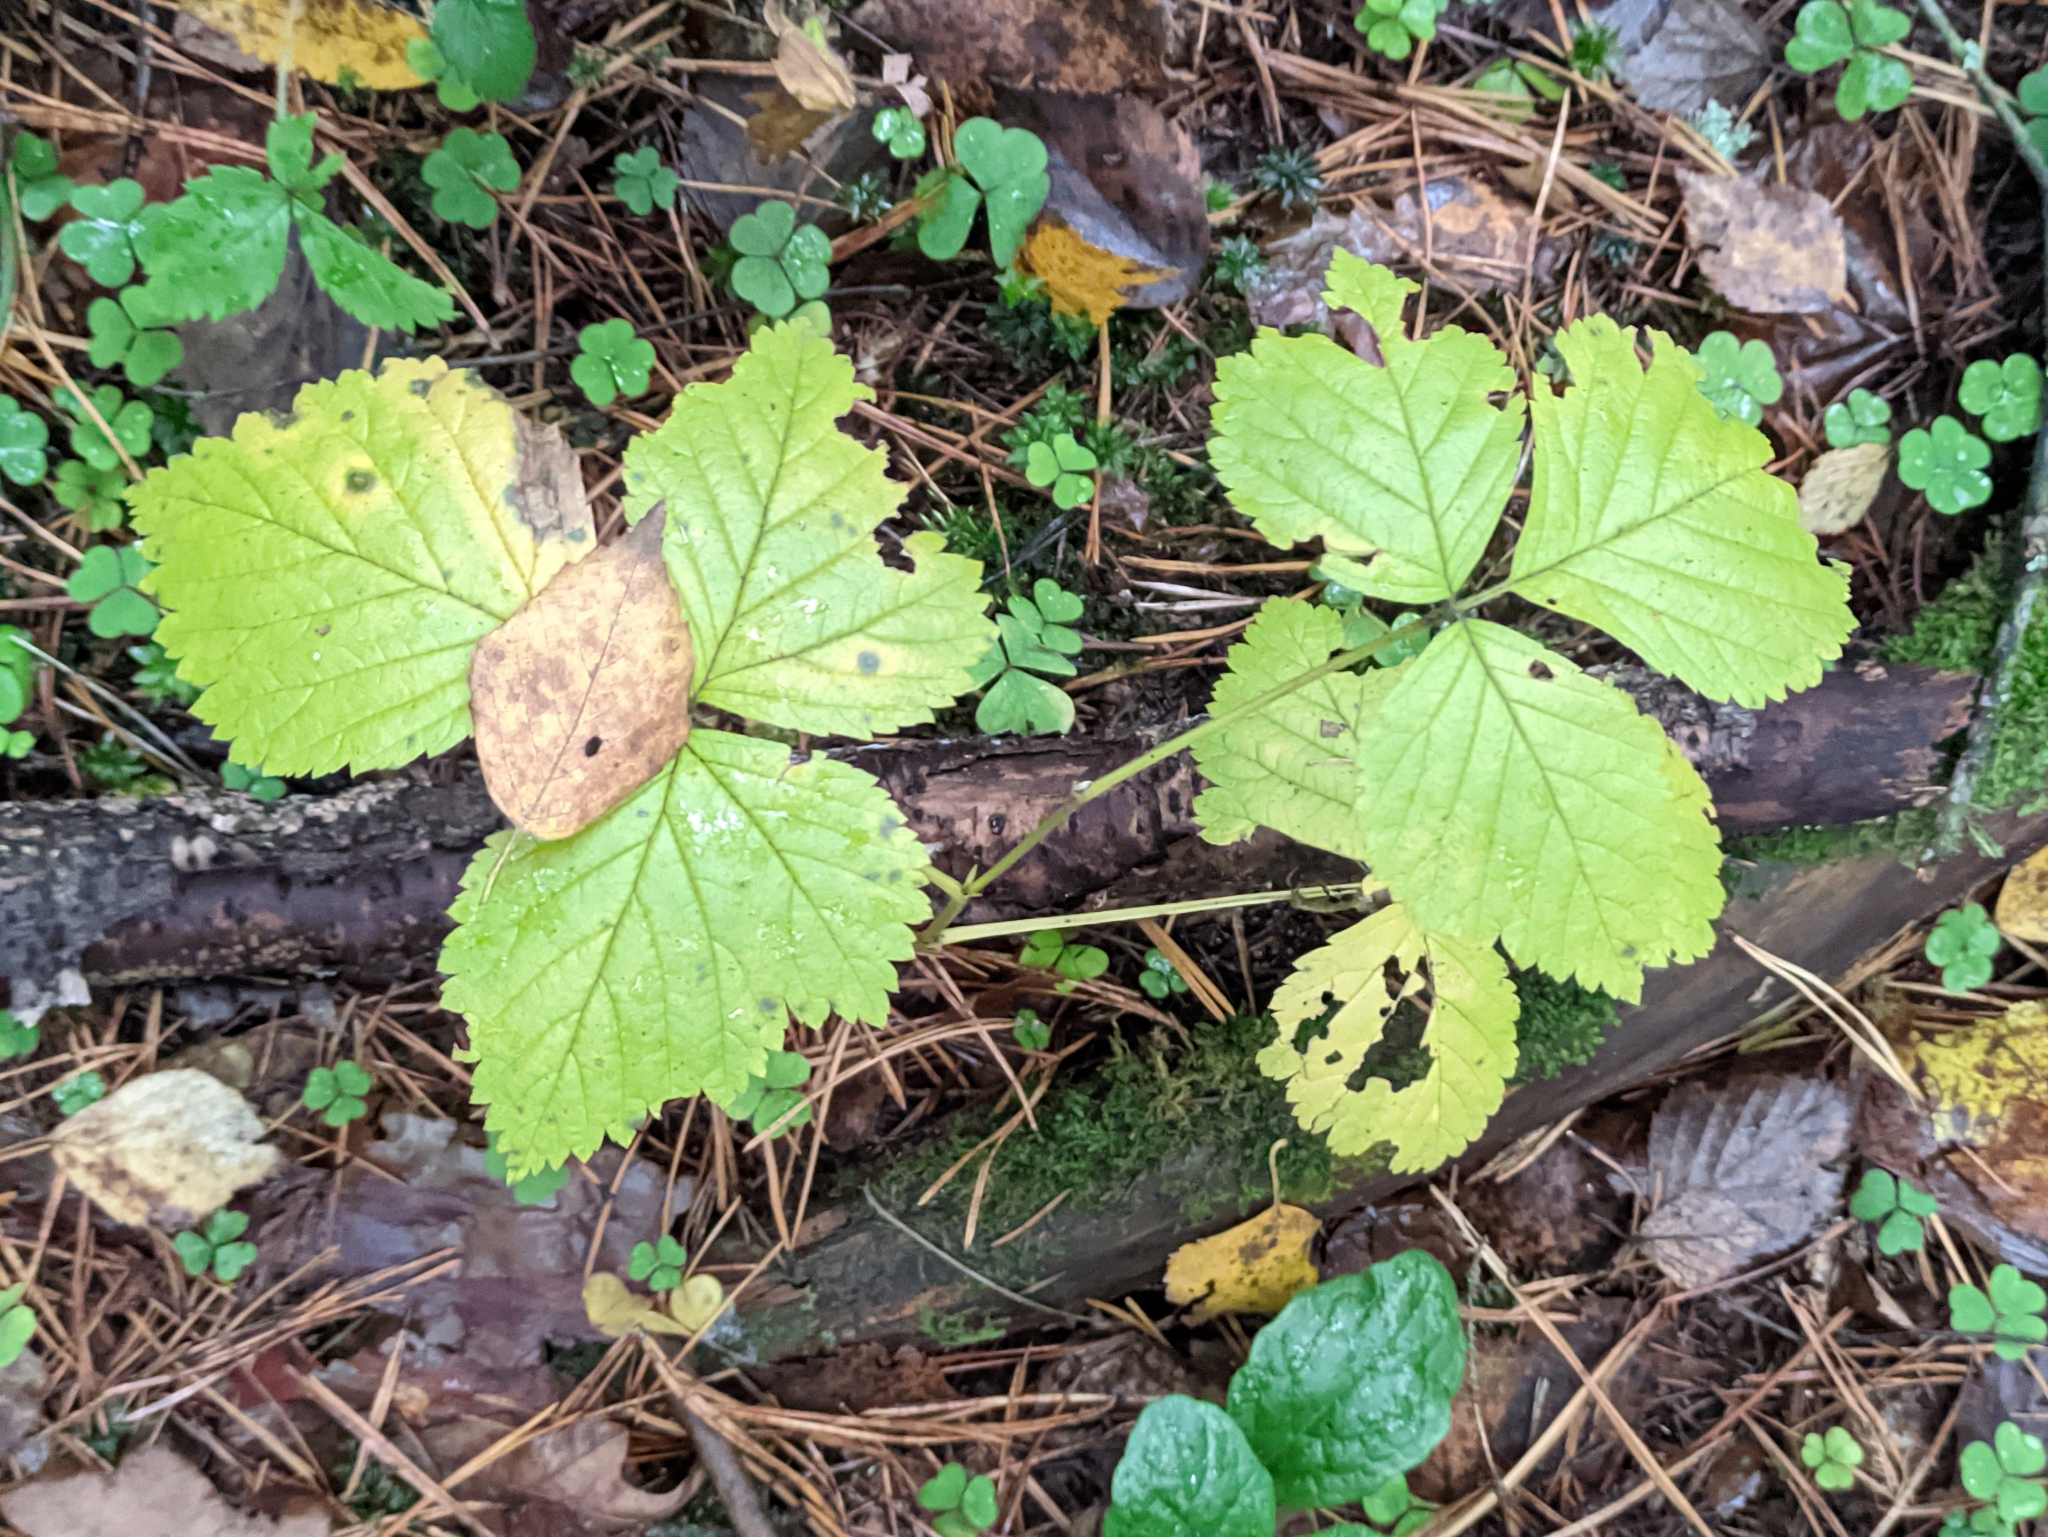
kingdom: Plantae
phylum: Tracheophyta
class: Magnoliopsida
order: Rosales
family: Rosaceae
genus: Rubus
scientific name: Rubus saxatilis
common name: Stone bramble
